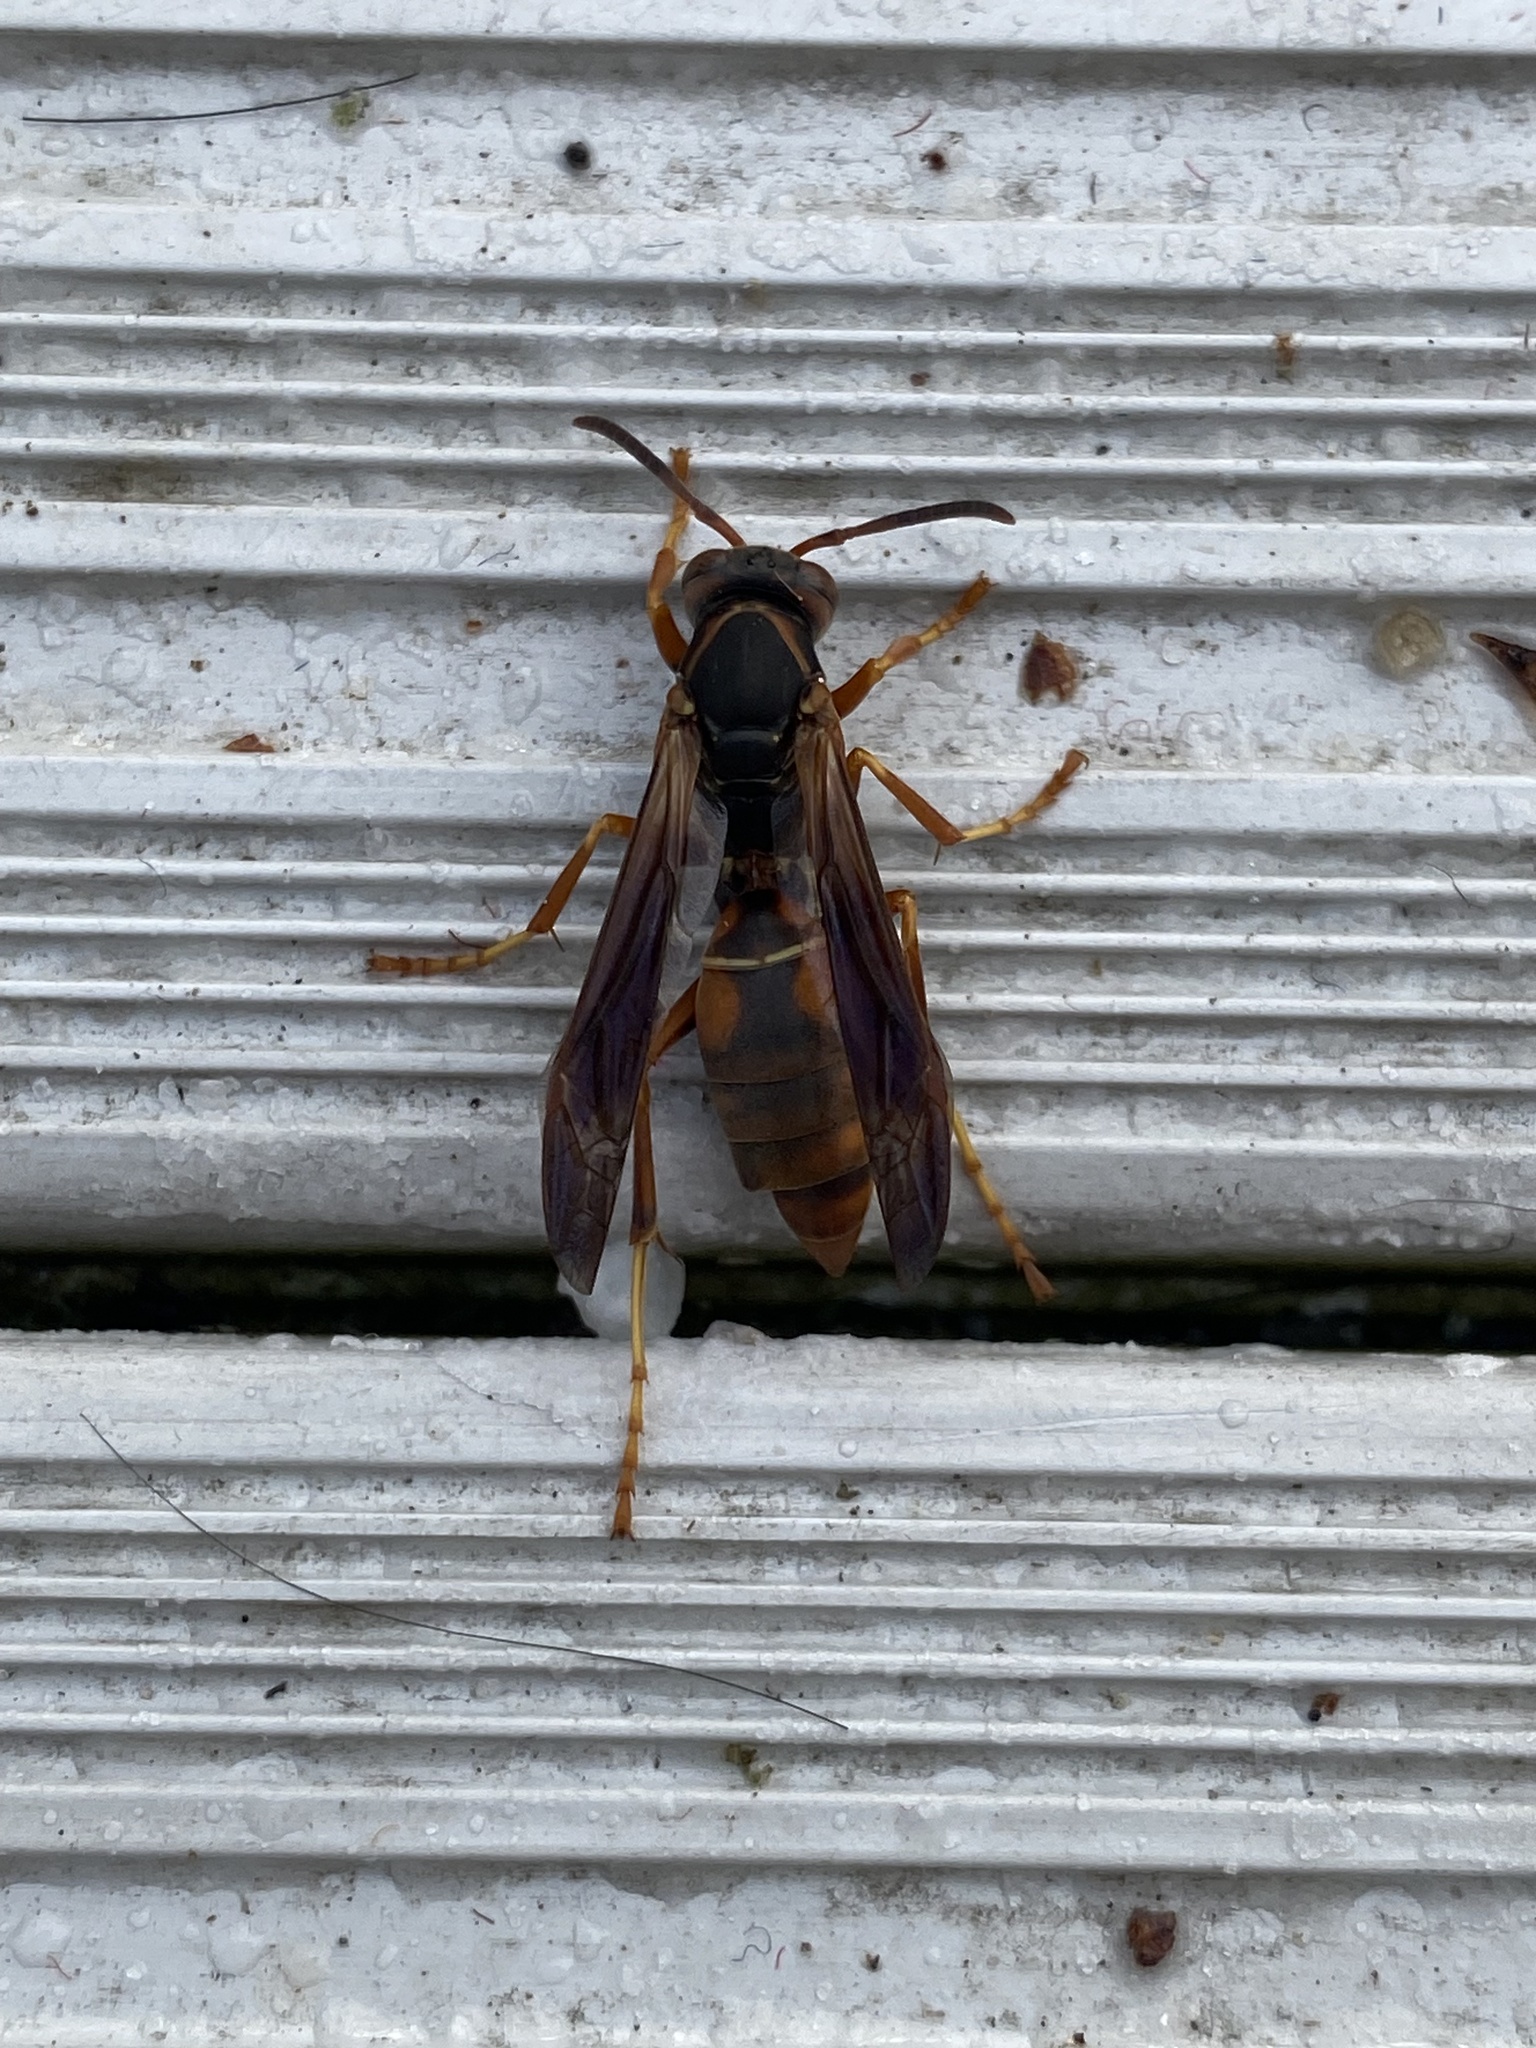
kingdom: Animalia
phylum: Arthropoda
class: Insecta
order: Hymenoptera
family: Eumenidae
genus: Polistes
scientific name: Polistes fuscatus
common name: Dark paper wasp
